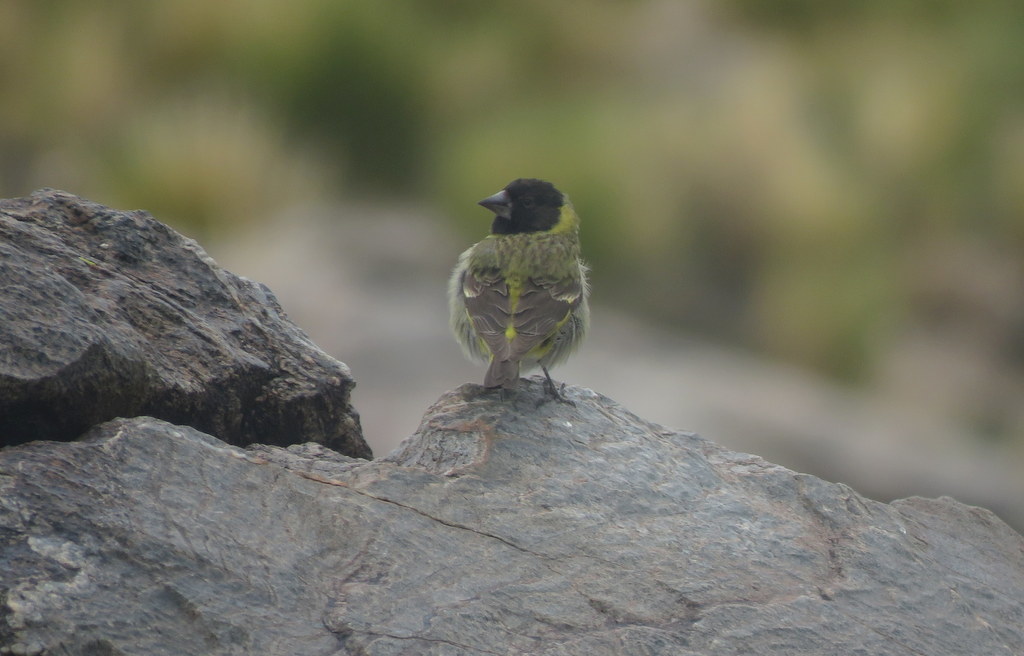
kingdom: Animalia
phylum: Chordata
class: Aves
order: Passeriformes
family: Fringillidae
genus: Spinus
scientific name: Spinus crassirostris
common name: Thick-billed siskin
